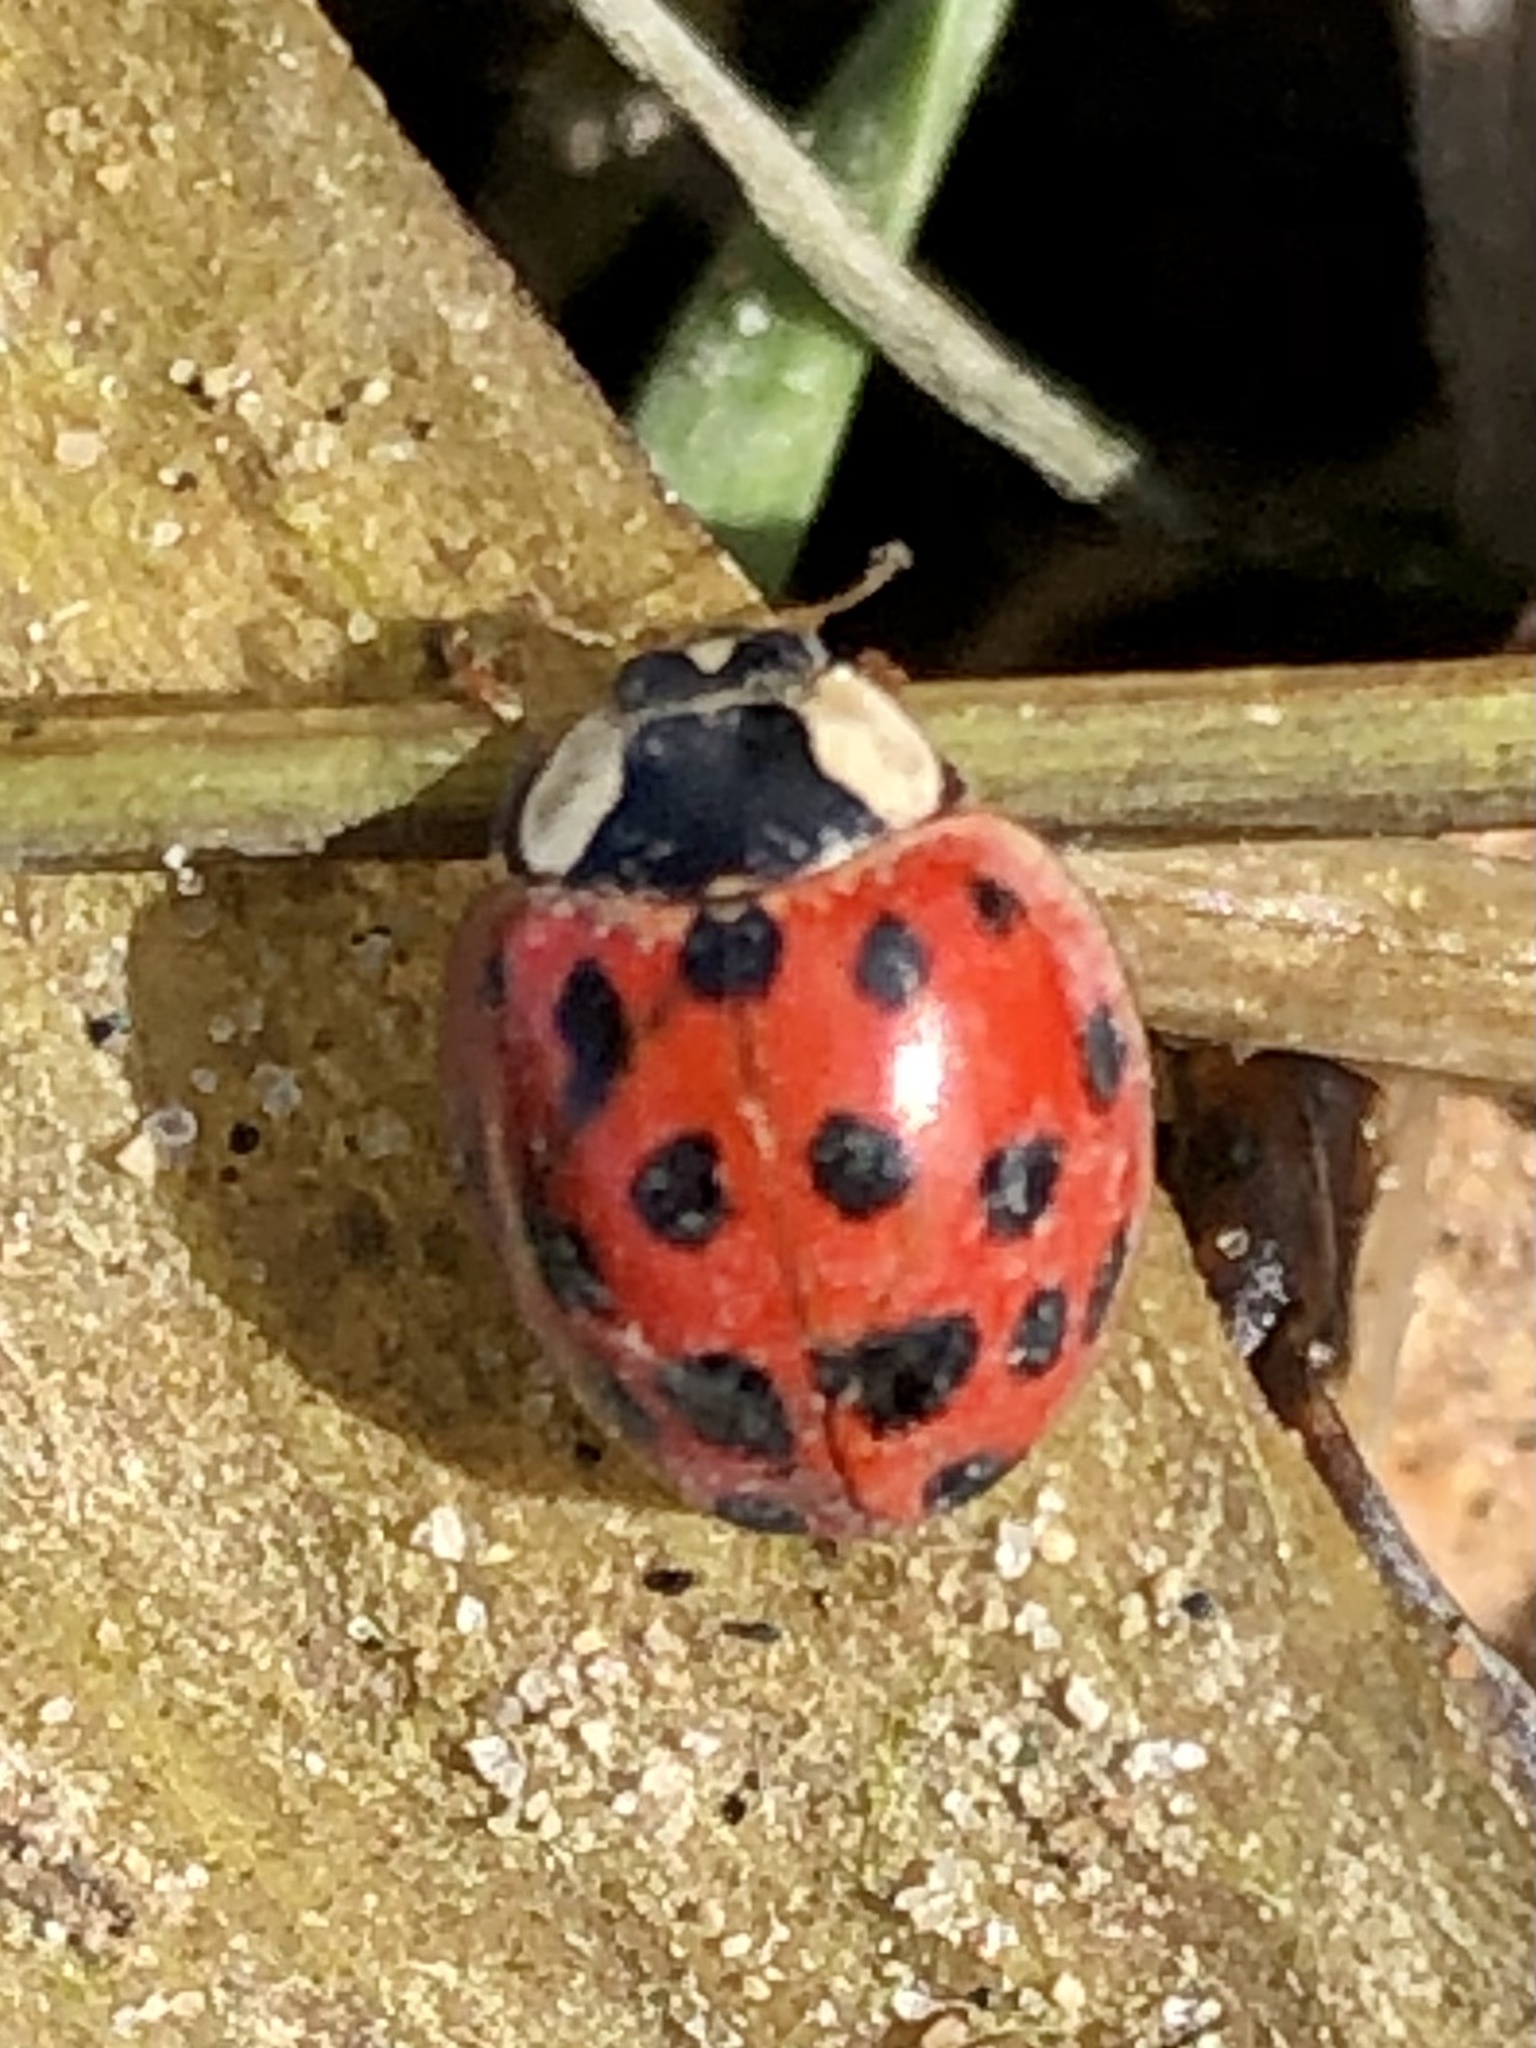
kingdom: Animalia
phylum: Arthropoda
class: Insecta
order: Coleoptera
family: Coccinellidae
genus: Harmonia
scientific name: Harmonia axyridis
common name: Harlequin ladybird
